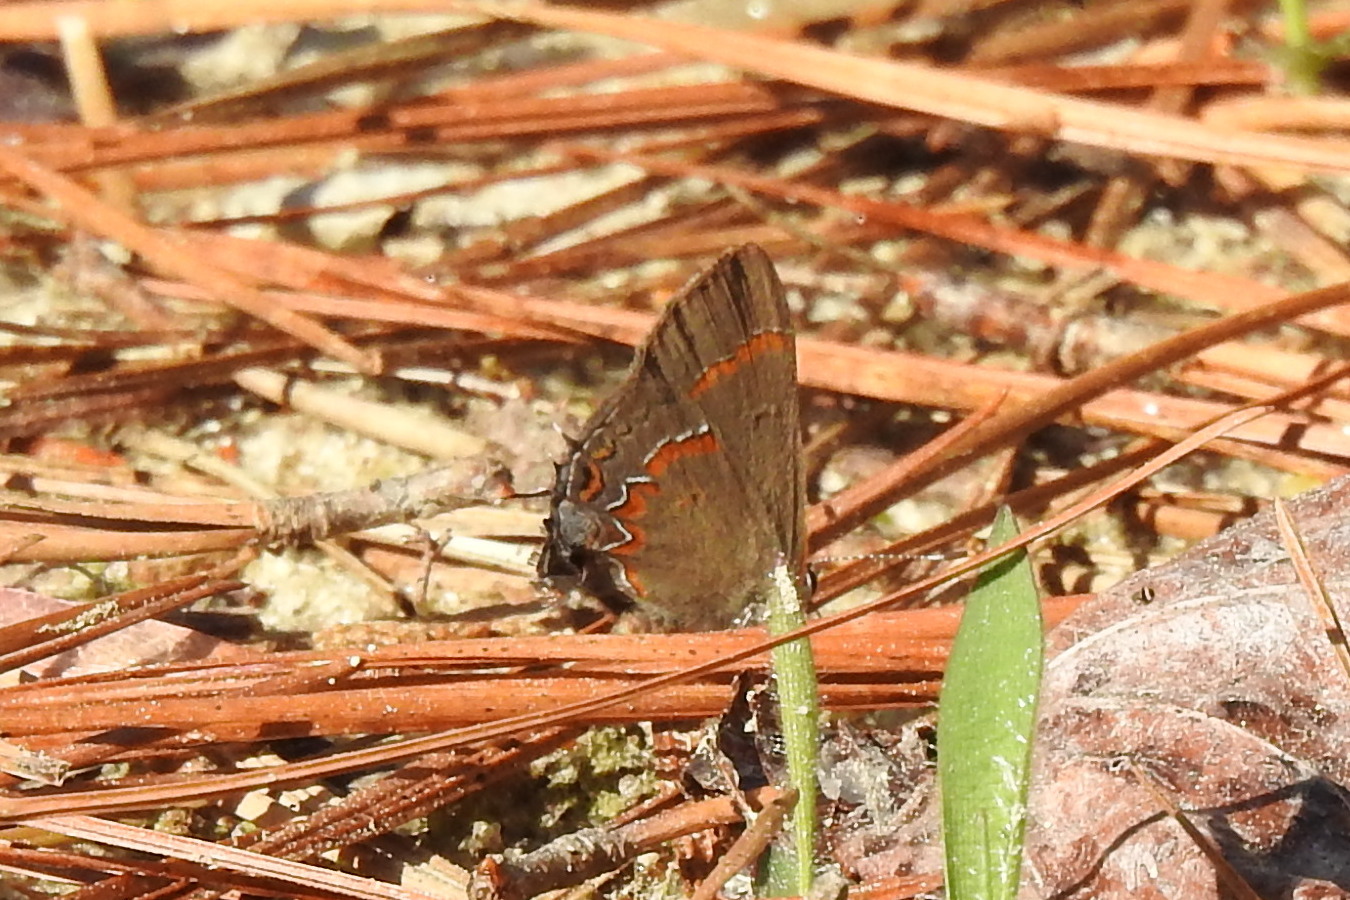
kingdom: Animalia
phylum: Arthropoda
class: Insecta
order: Lepidoptera
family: Lycaenidae
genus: Calycopis
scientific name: Calycopis cecrops
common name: Red-banded hairstreak
